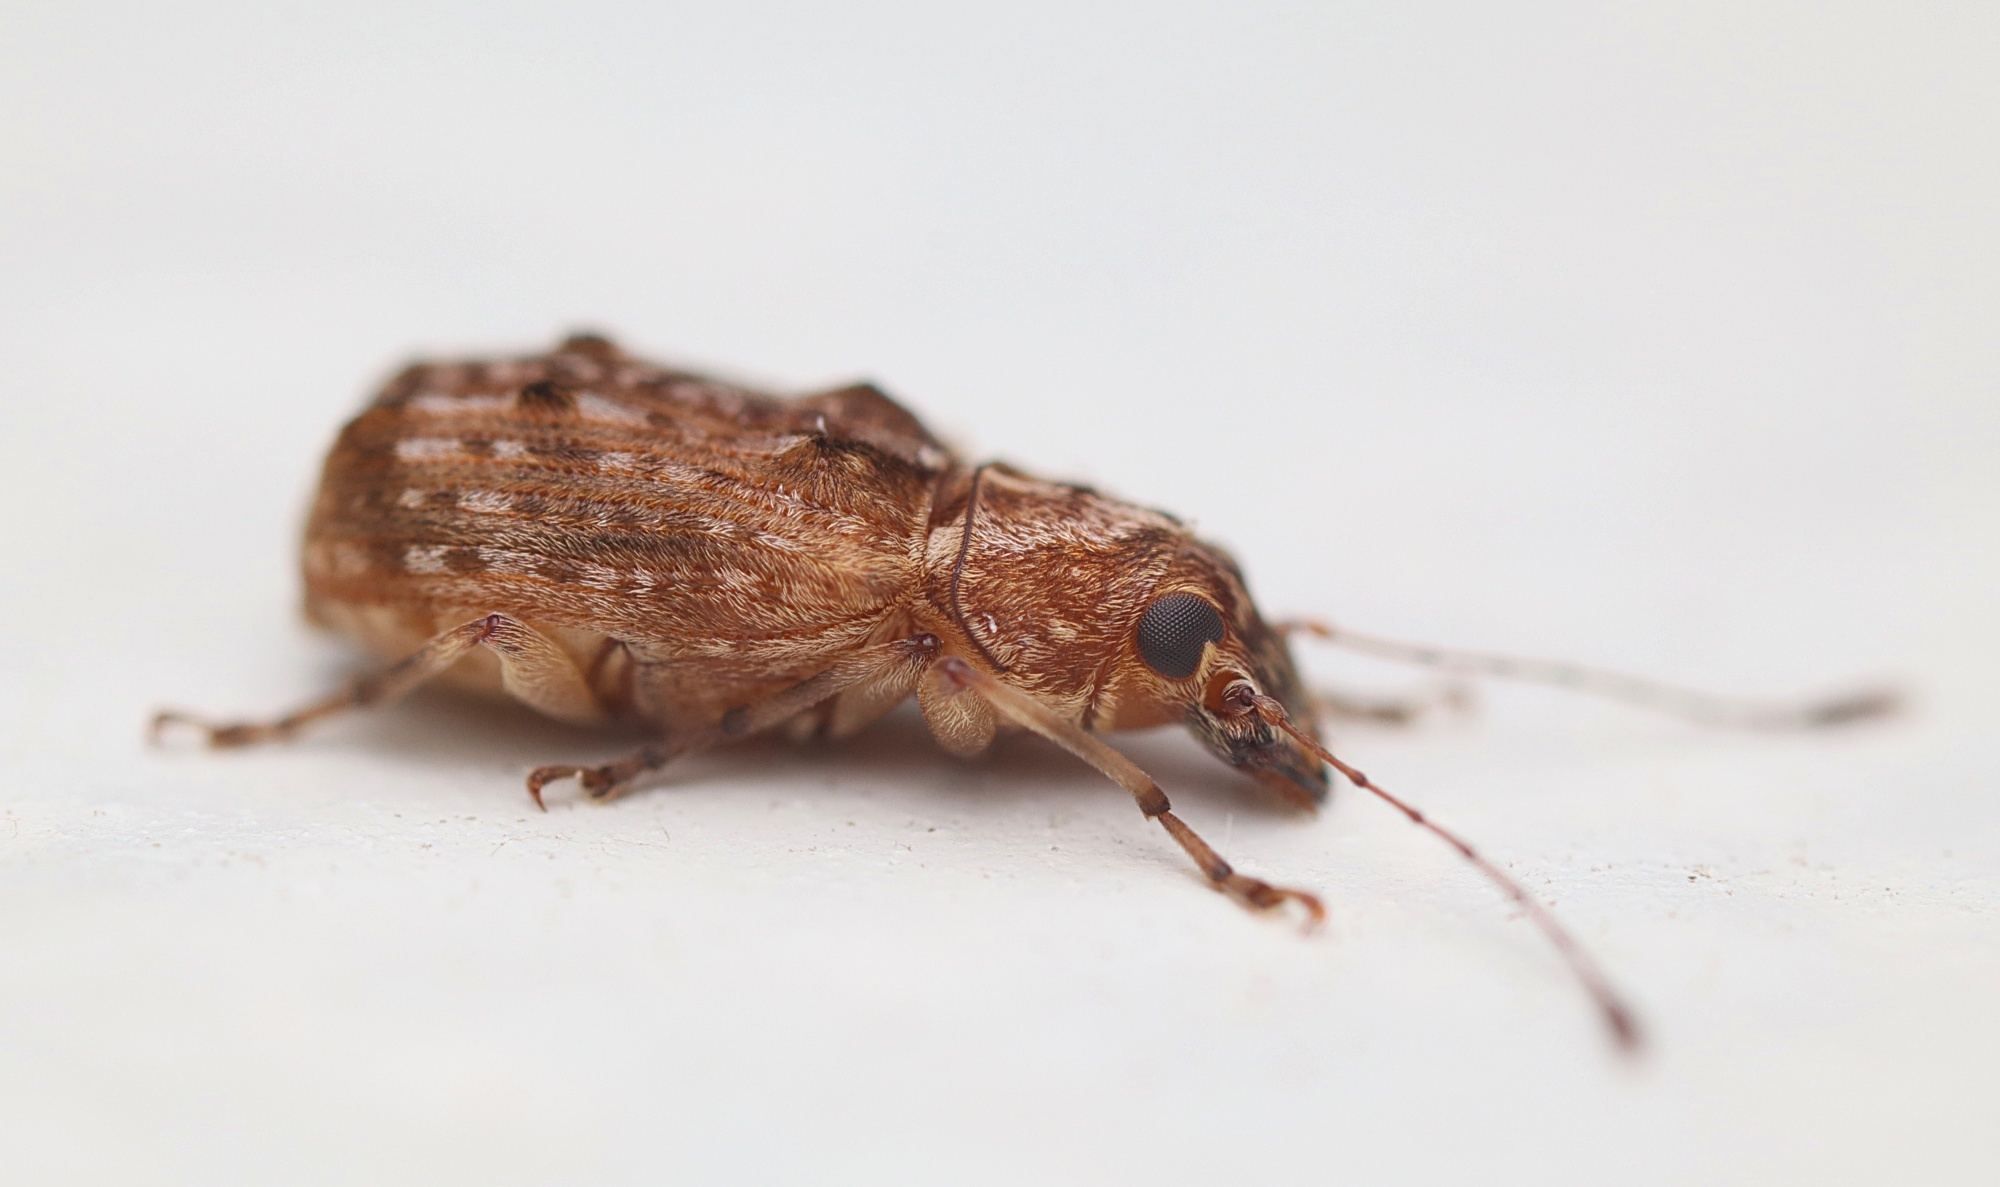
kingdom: Animalia
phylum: Arthropoda
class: Insecta
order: Coleoptera
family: Anthribidae
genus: Phymatus
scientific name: Phymatus
